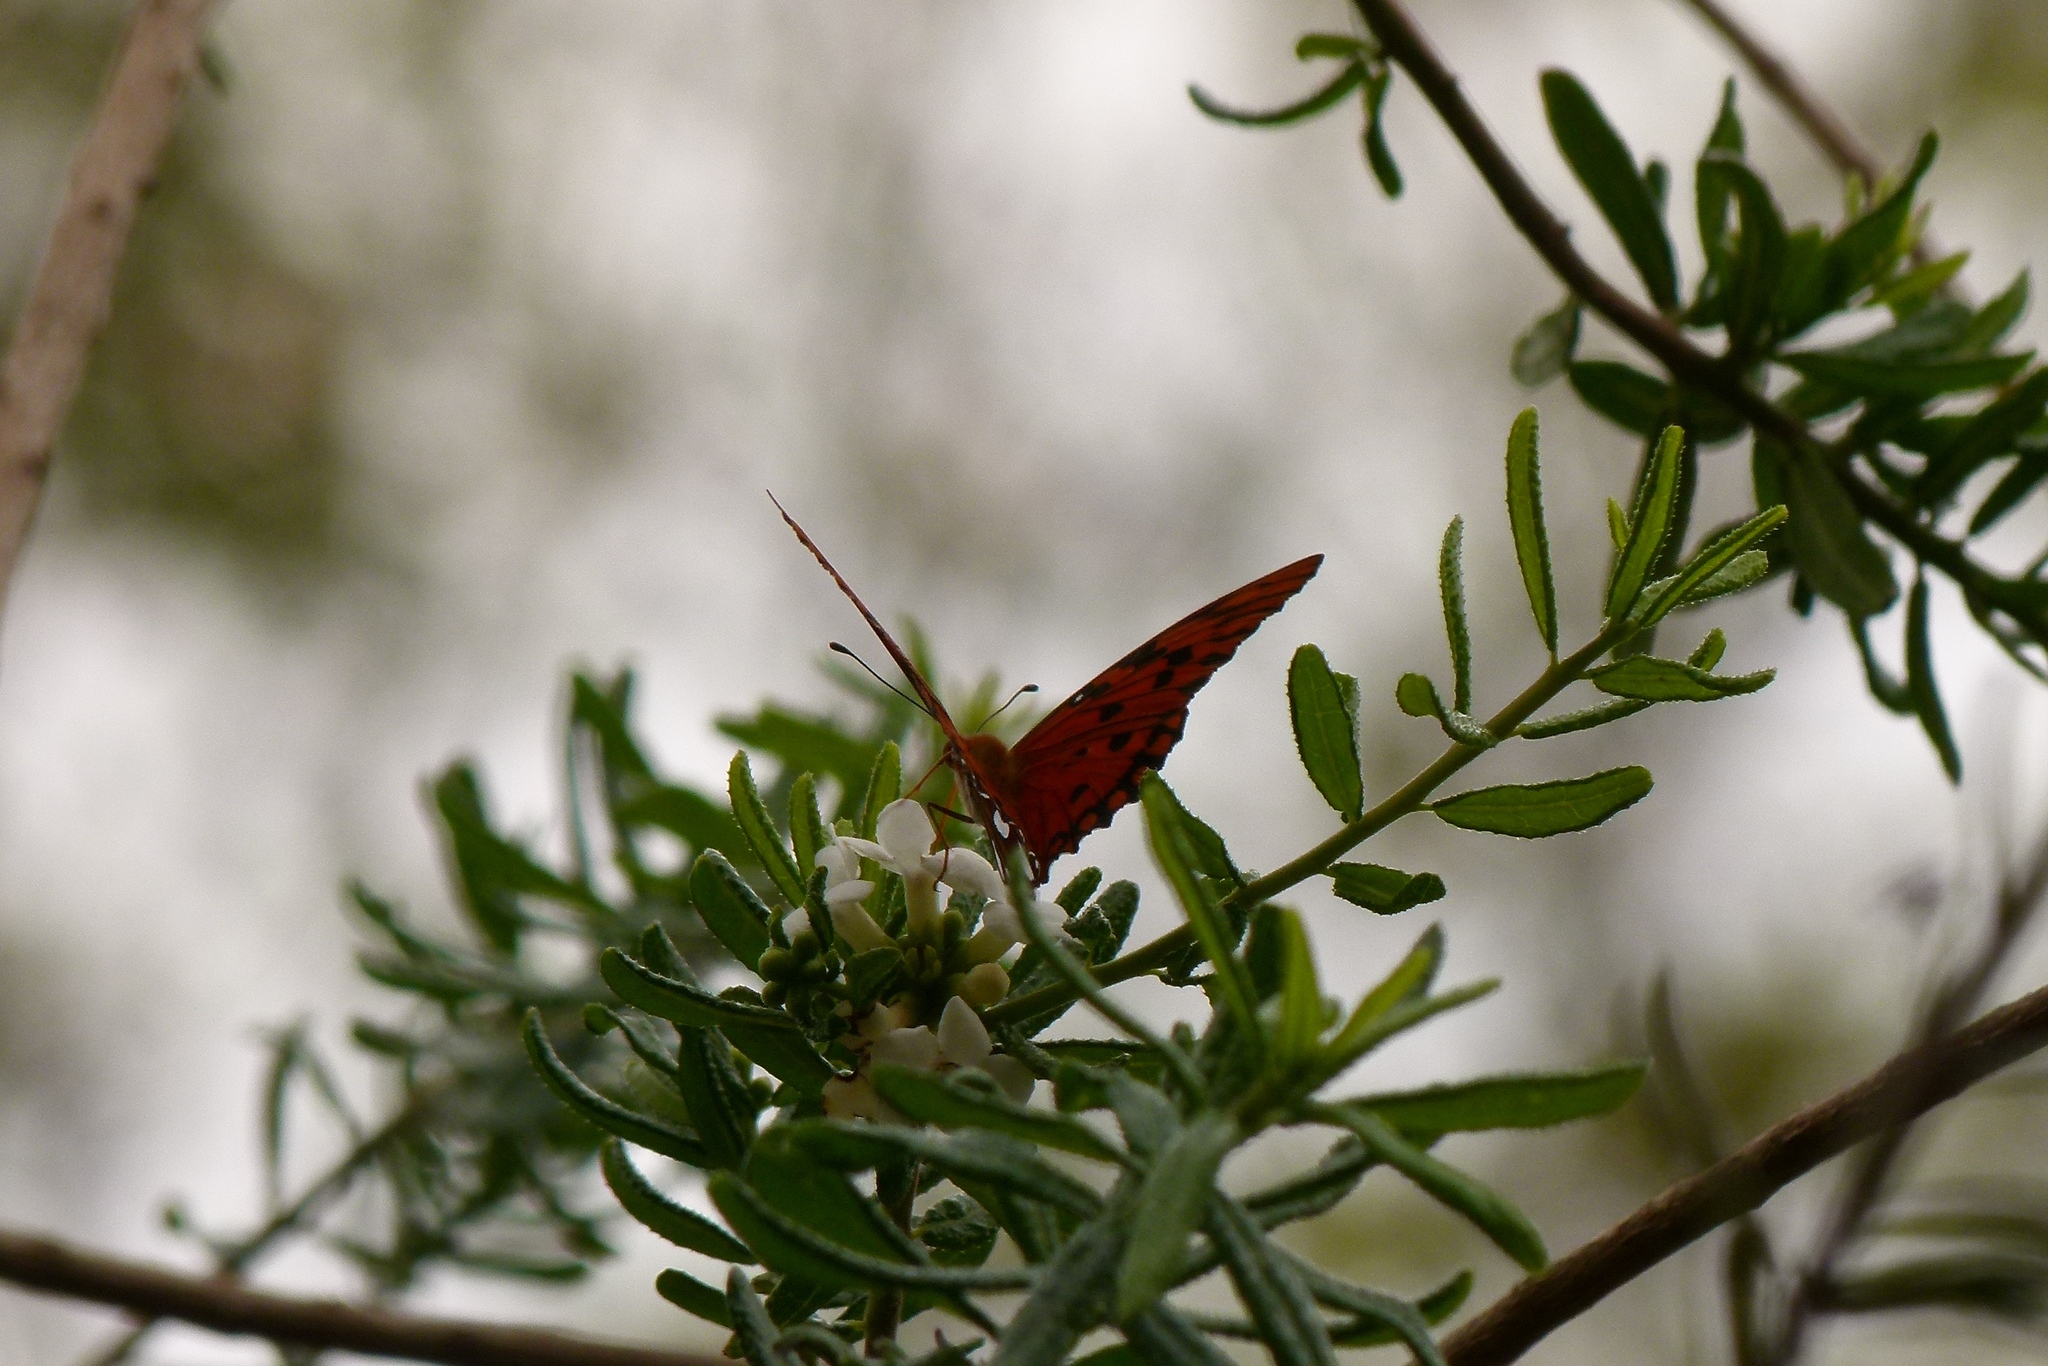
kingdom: Animalia
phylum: Arthropoda
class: Insecta
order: Lepidoptera
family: Nymphalidae
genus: Dione
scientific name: Dione vanillae
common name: Gulf fritillary
